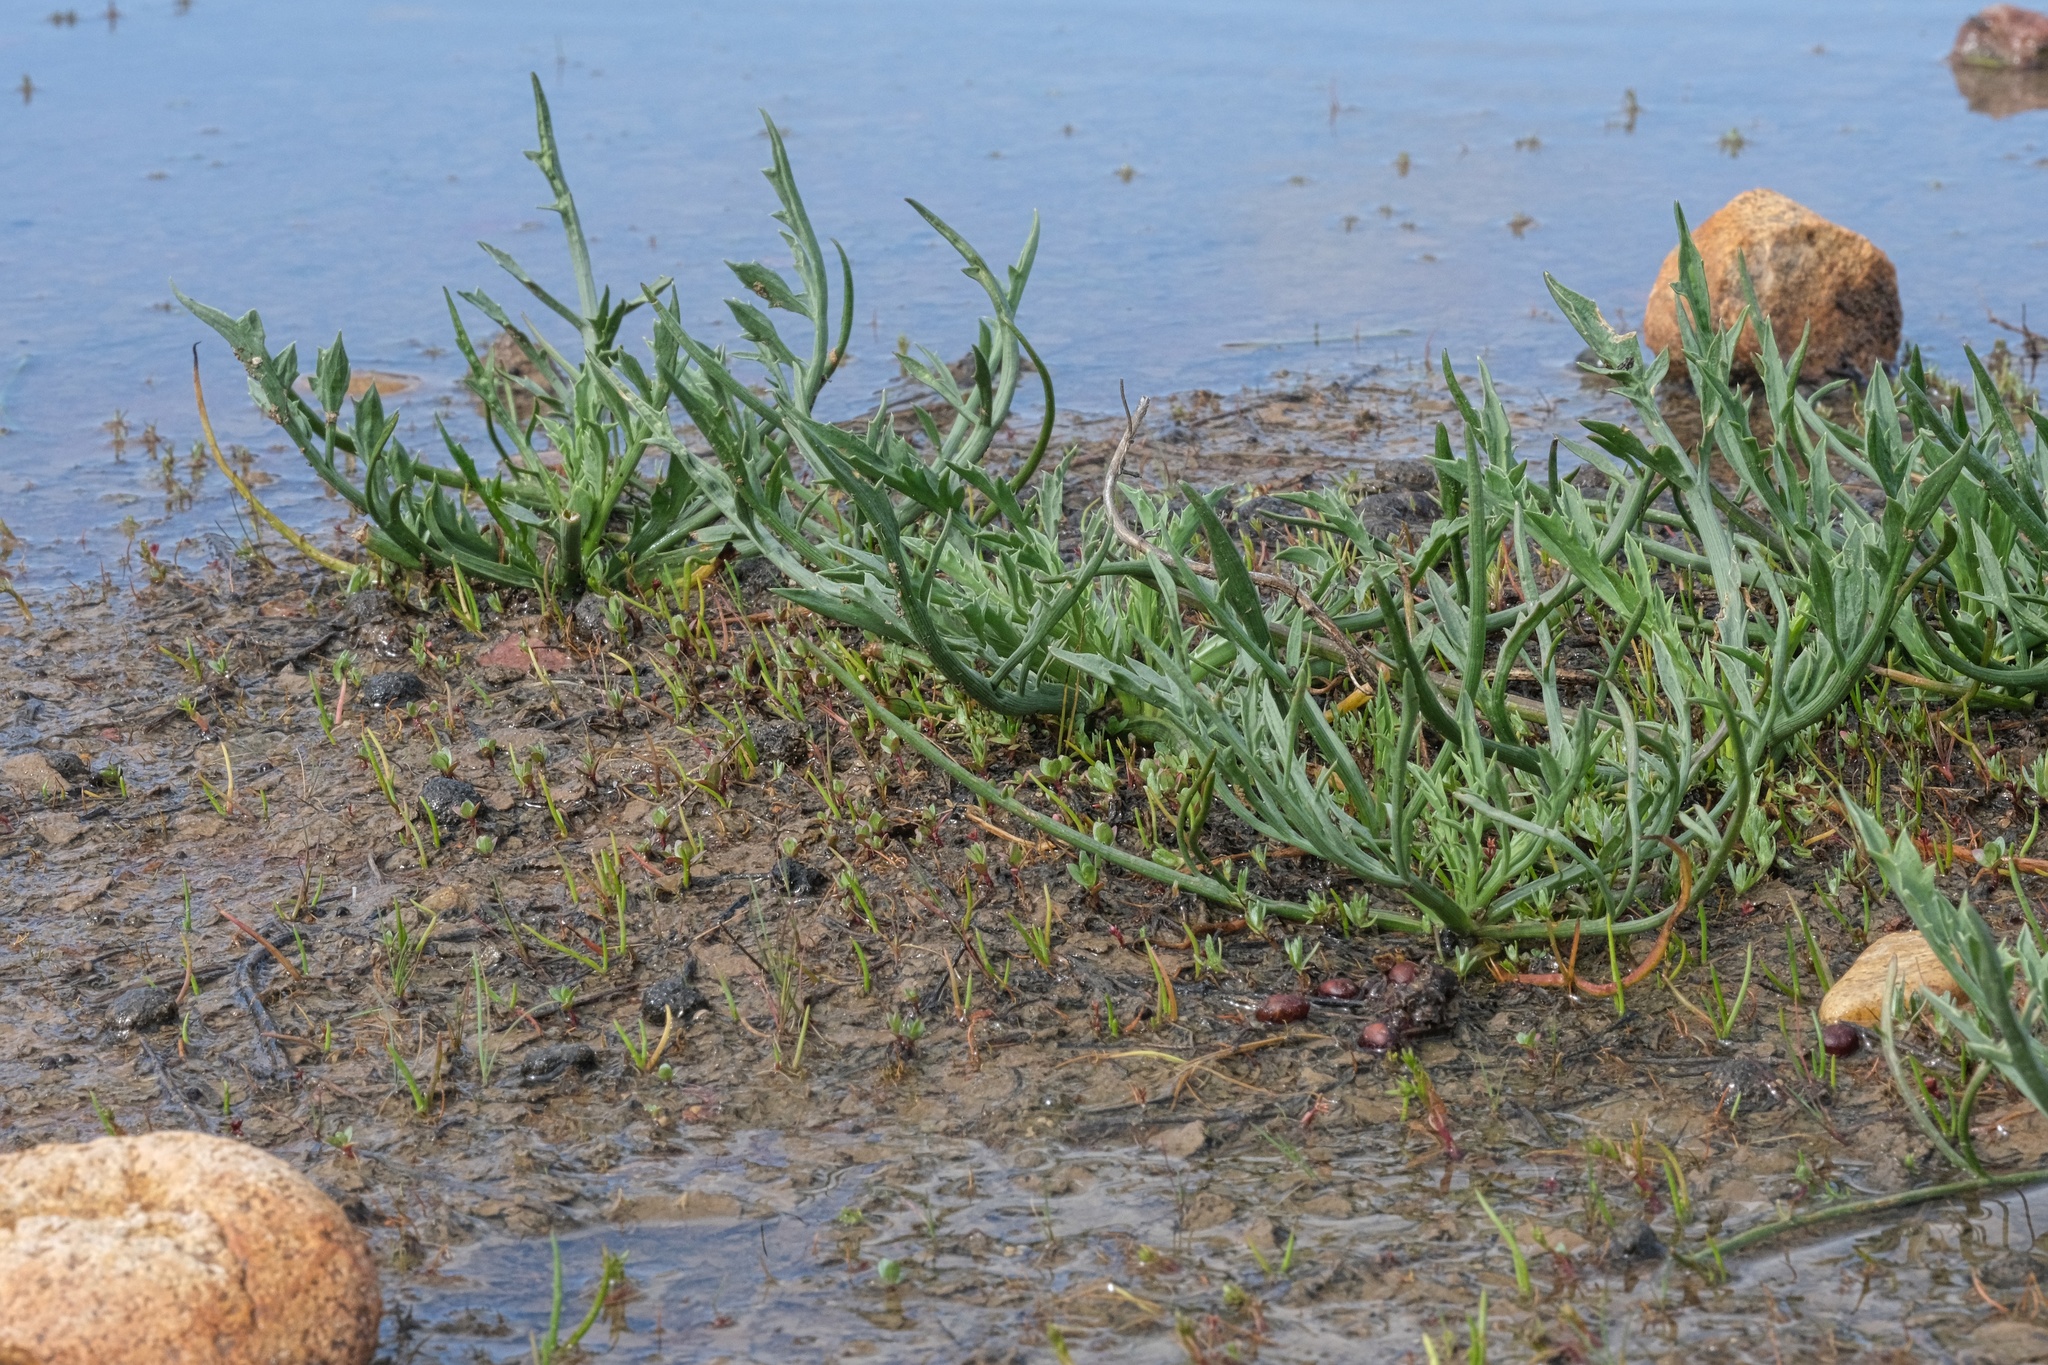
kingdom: Plantae
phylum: Tracheophyta
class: Magnoliopsida
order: Apiales
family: Apiaceae
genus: Eryngium
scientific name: Eryngium aristulatum
